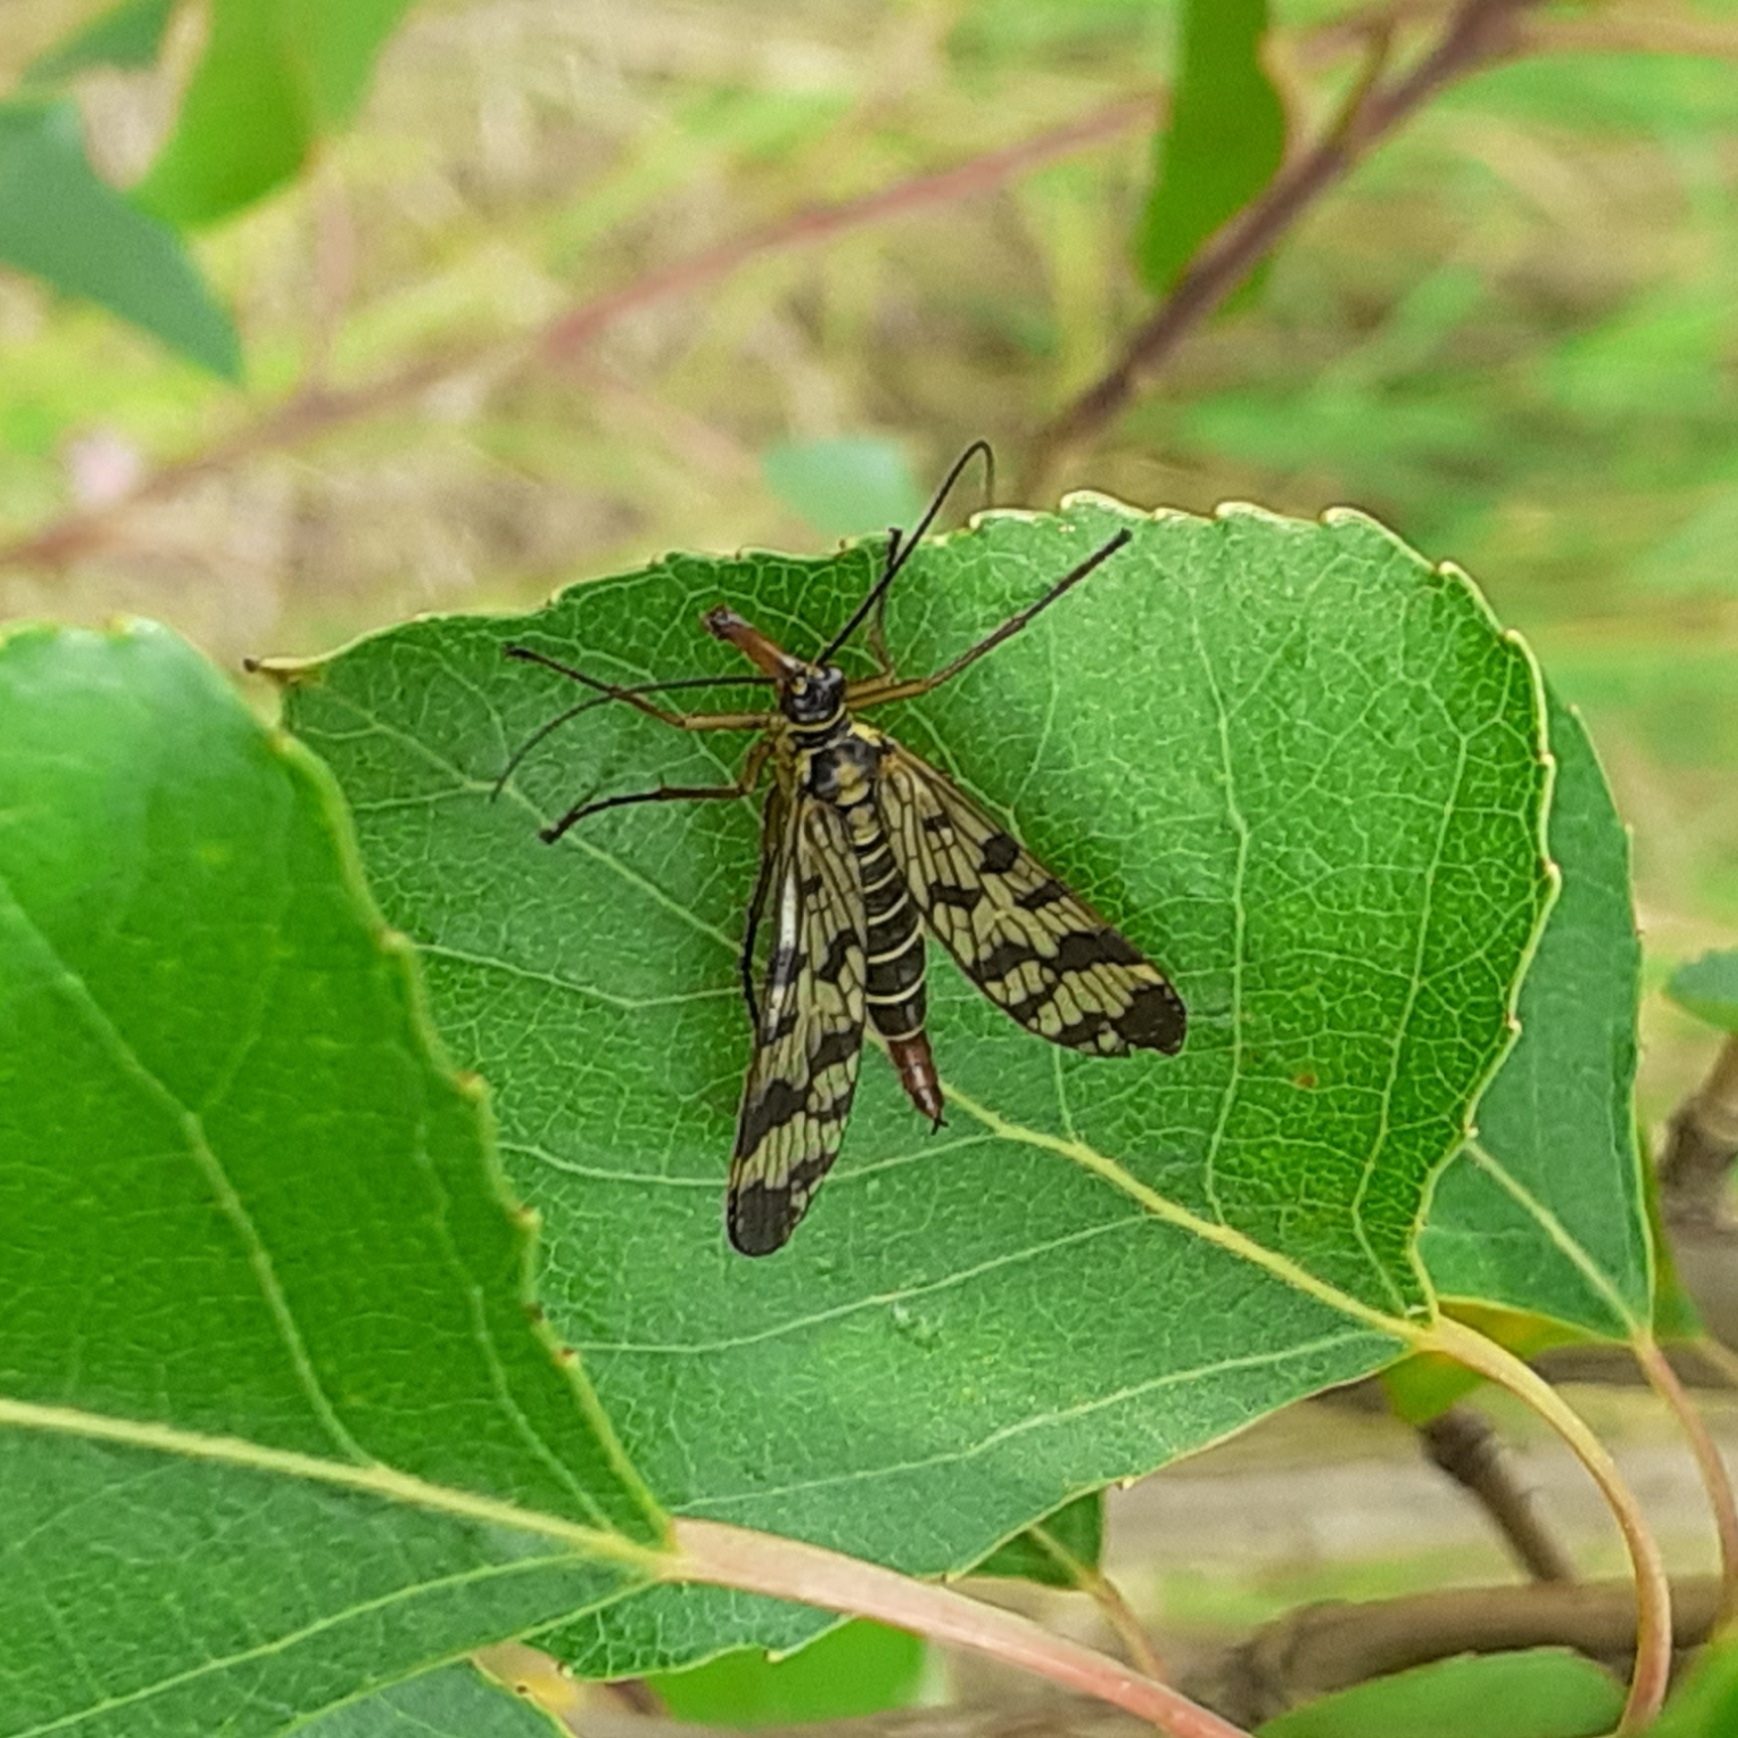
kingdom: Animalia
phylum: Arthropoda
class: Insecta
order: Mecoptera
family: Panorpidae
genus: Panorpa
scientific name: Panorpa communis
